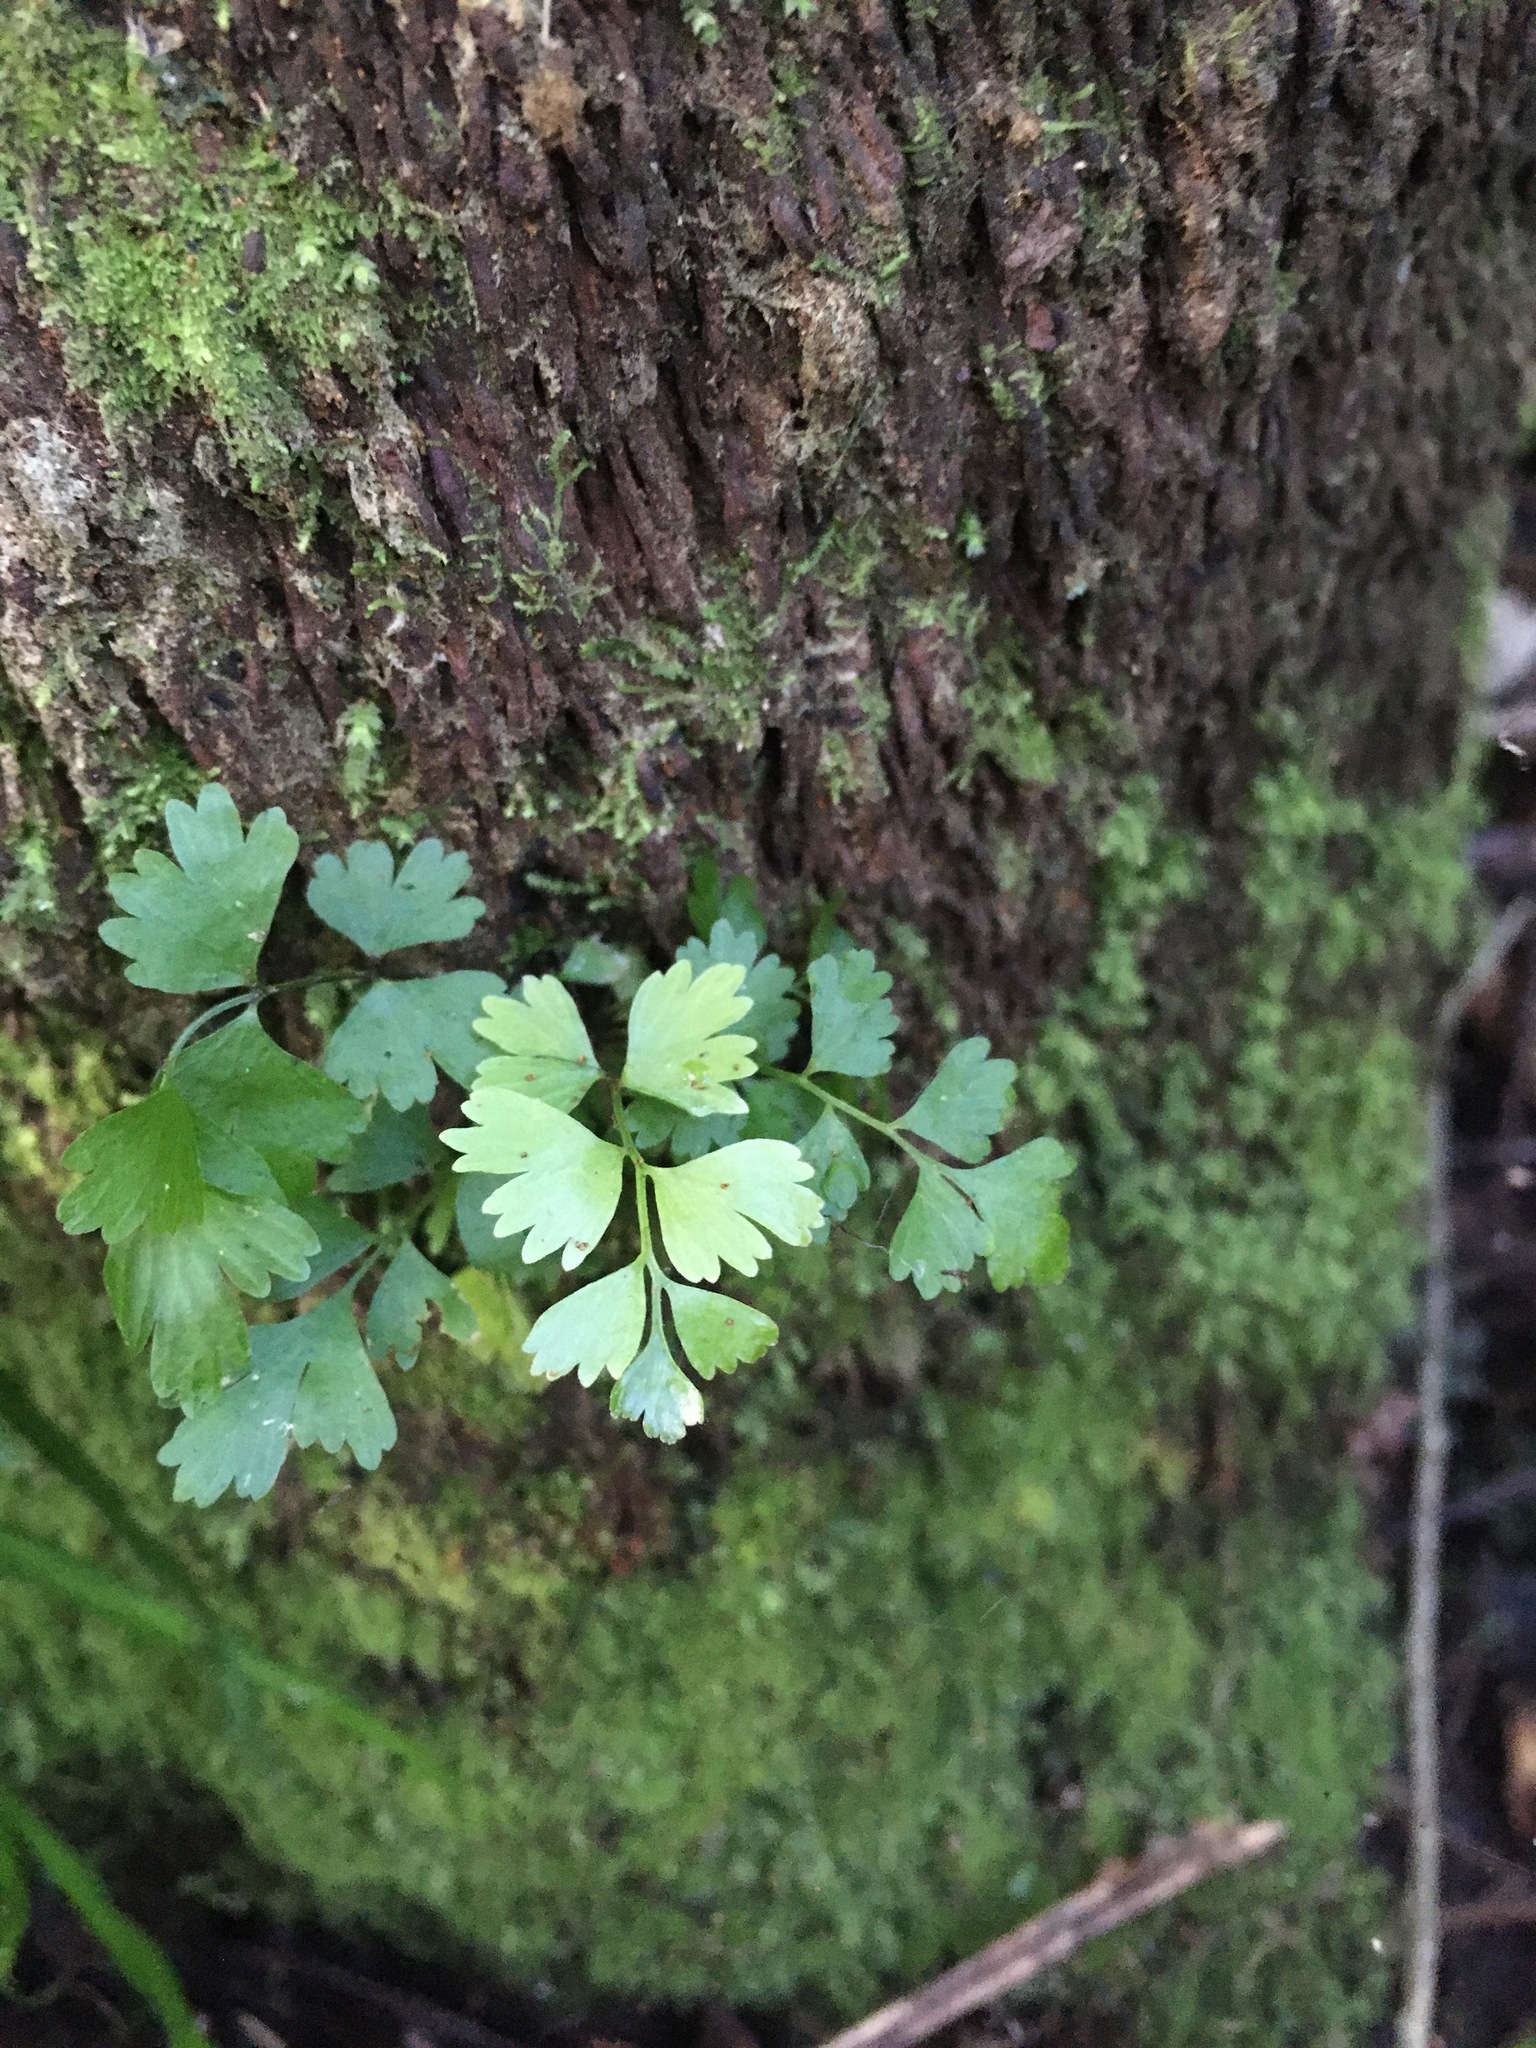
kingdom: Plantae
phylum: Tracheophyta
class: Polypodiopsida
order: Polypodiales
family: Aspleniaceae
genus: Asplenium
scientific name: Asplenium polyodon
